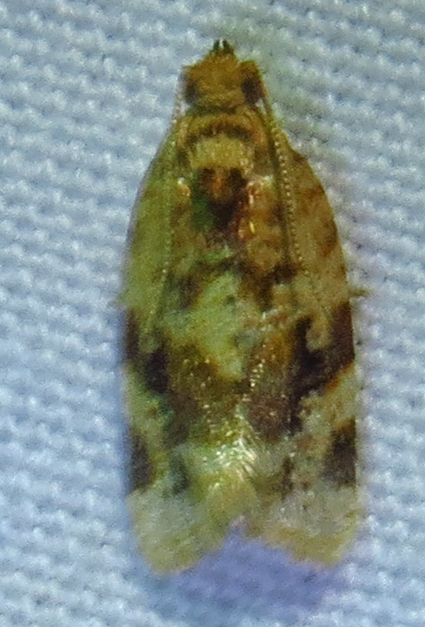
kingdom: Animalia
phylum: Arthropoda
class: Insecta
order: Lepidoptera
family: Tortricidae
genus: Argyrotaenia
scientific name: Argyrotaenia velutinana
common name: Red-banded leafroller moth
